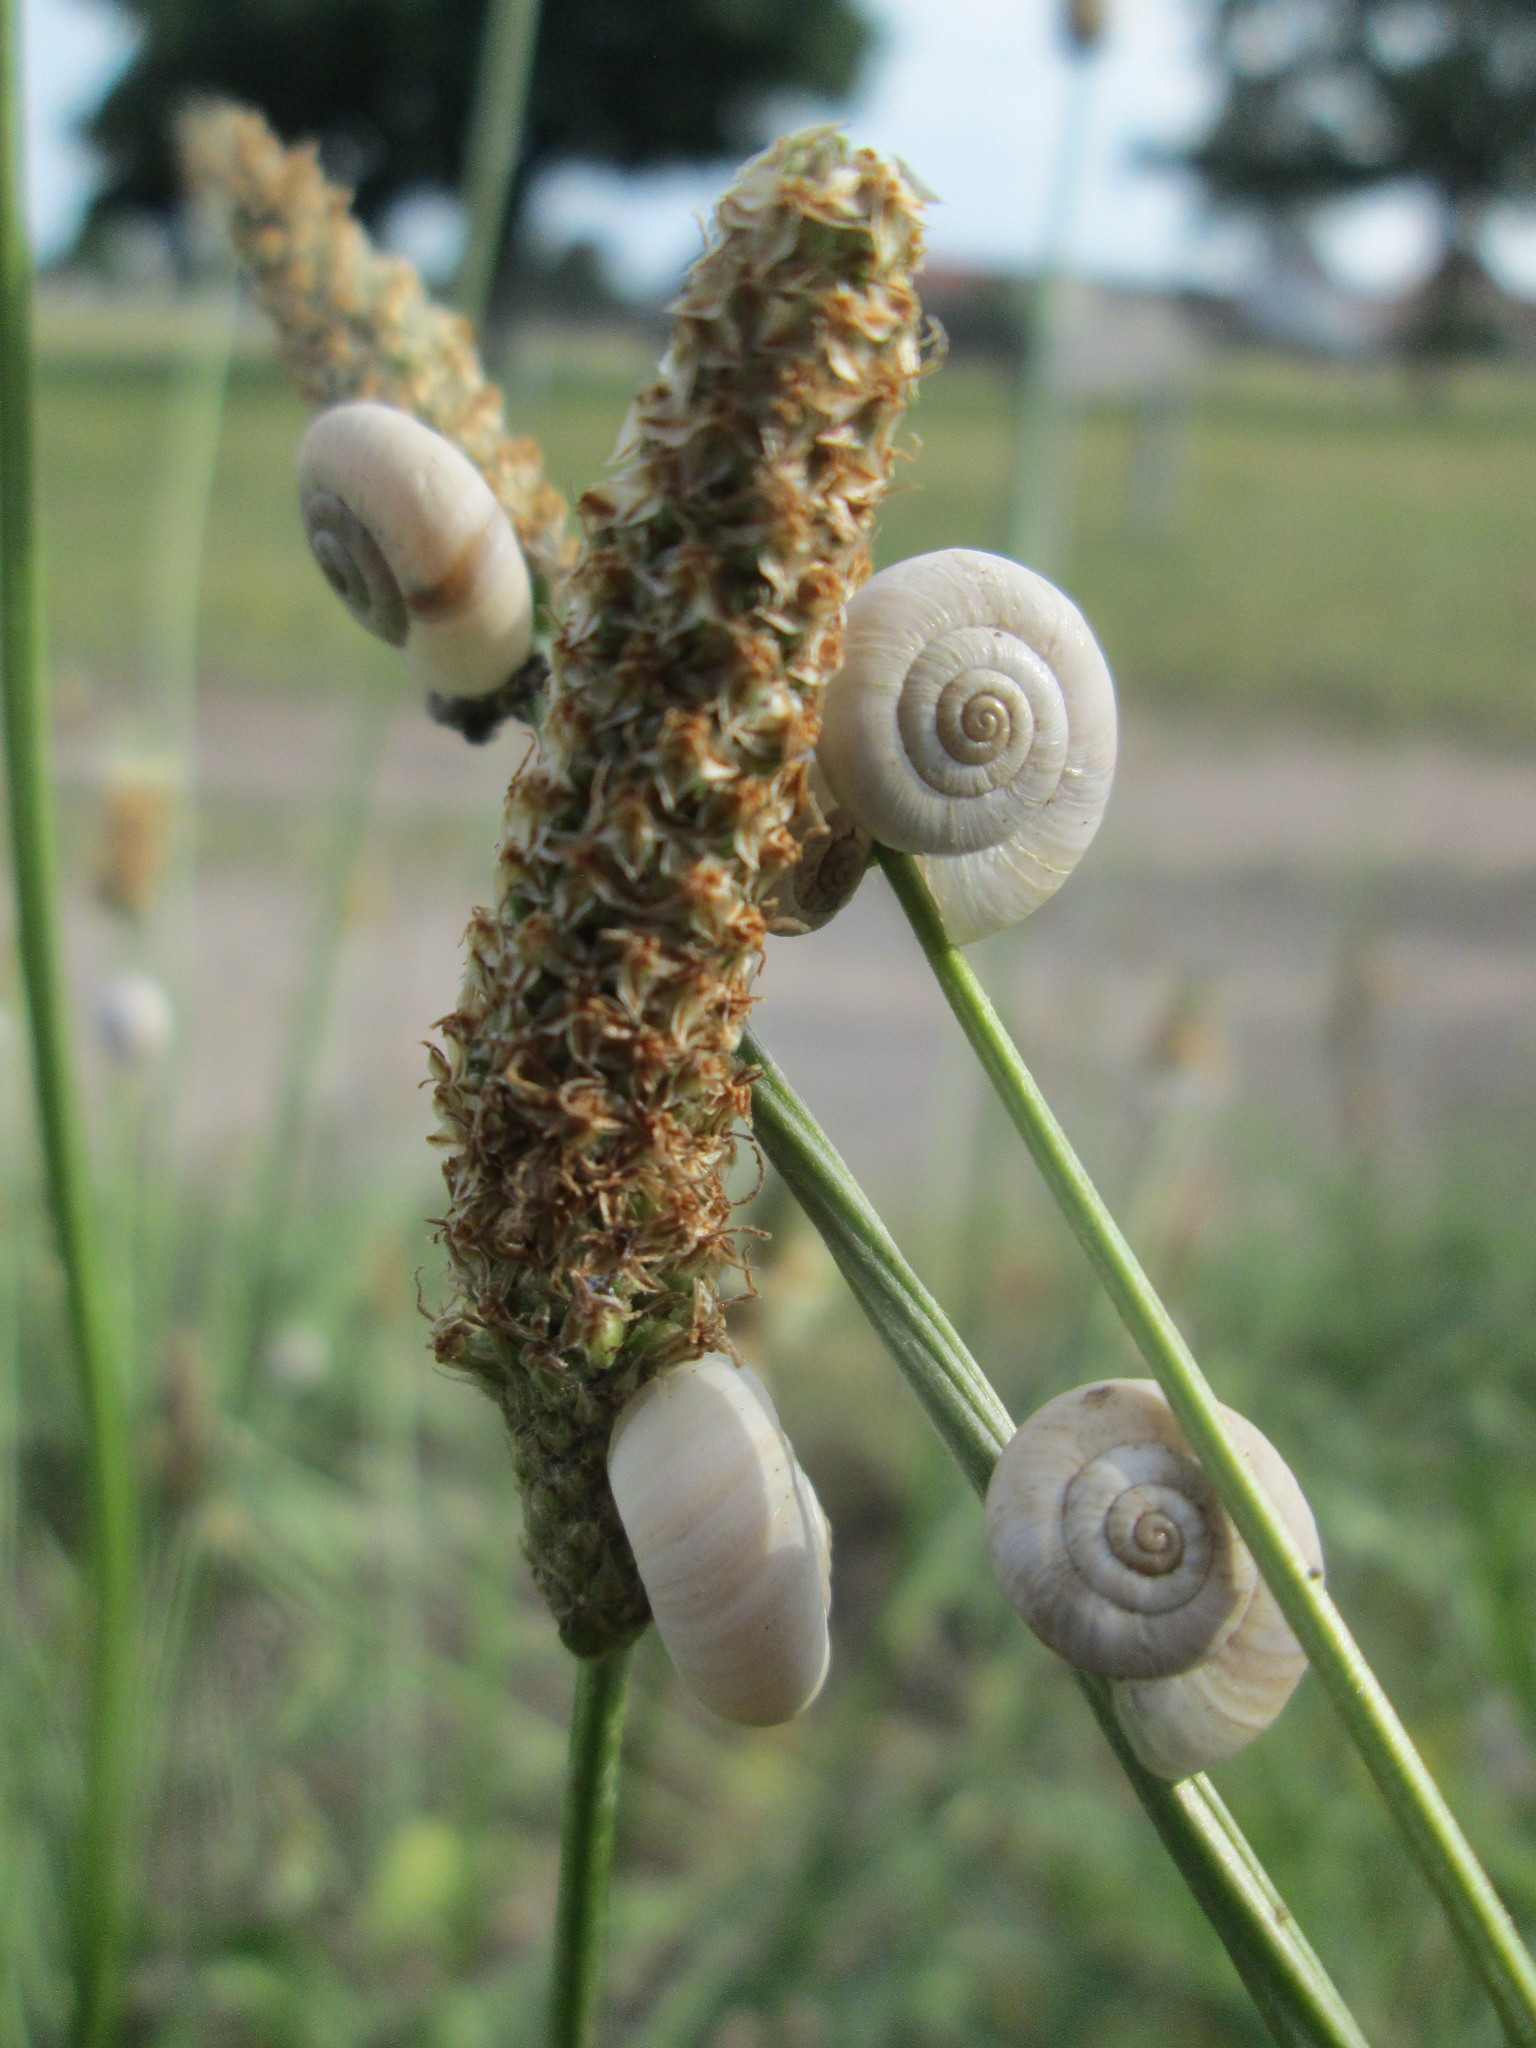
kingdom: Animalia
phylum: Mollusca
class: Gastropoda
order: Stylommatophora
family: Geomitridae
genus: Helicella
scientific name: Helicella itala
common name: Heath snail
